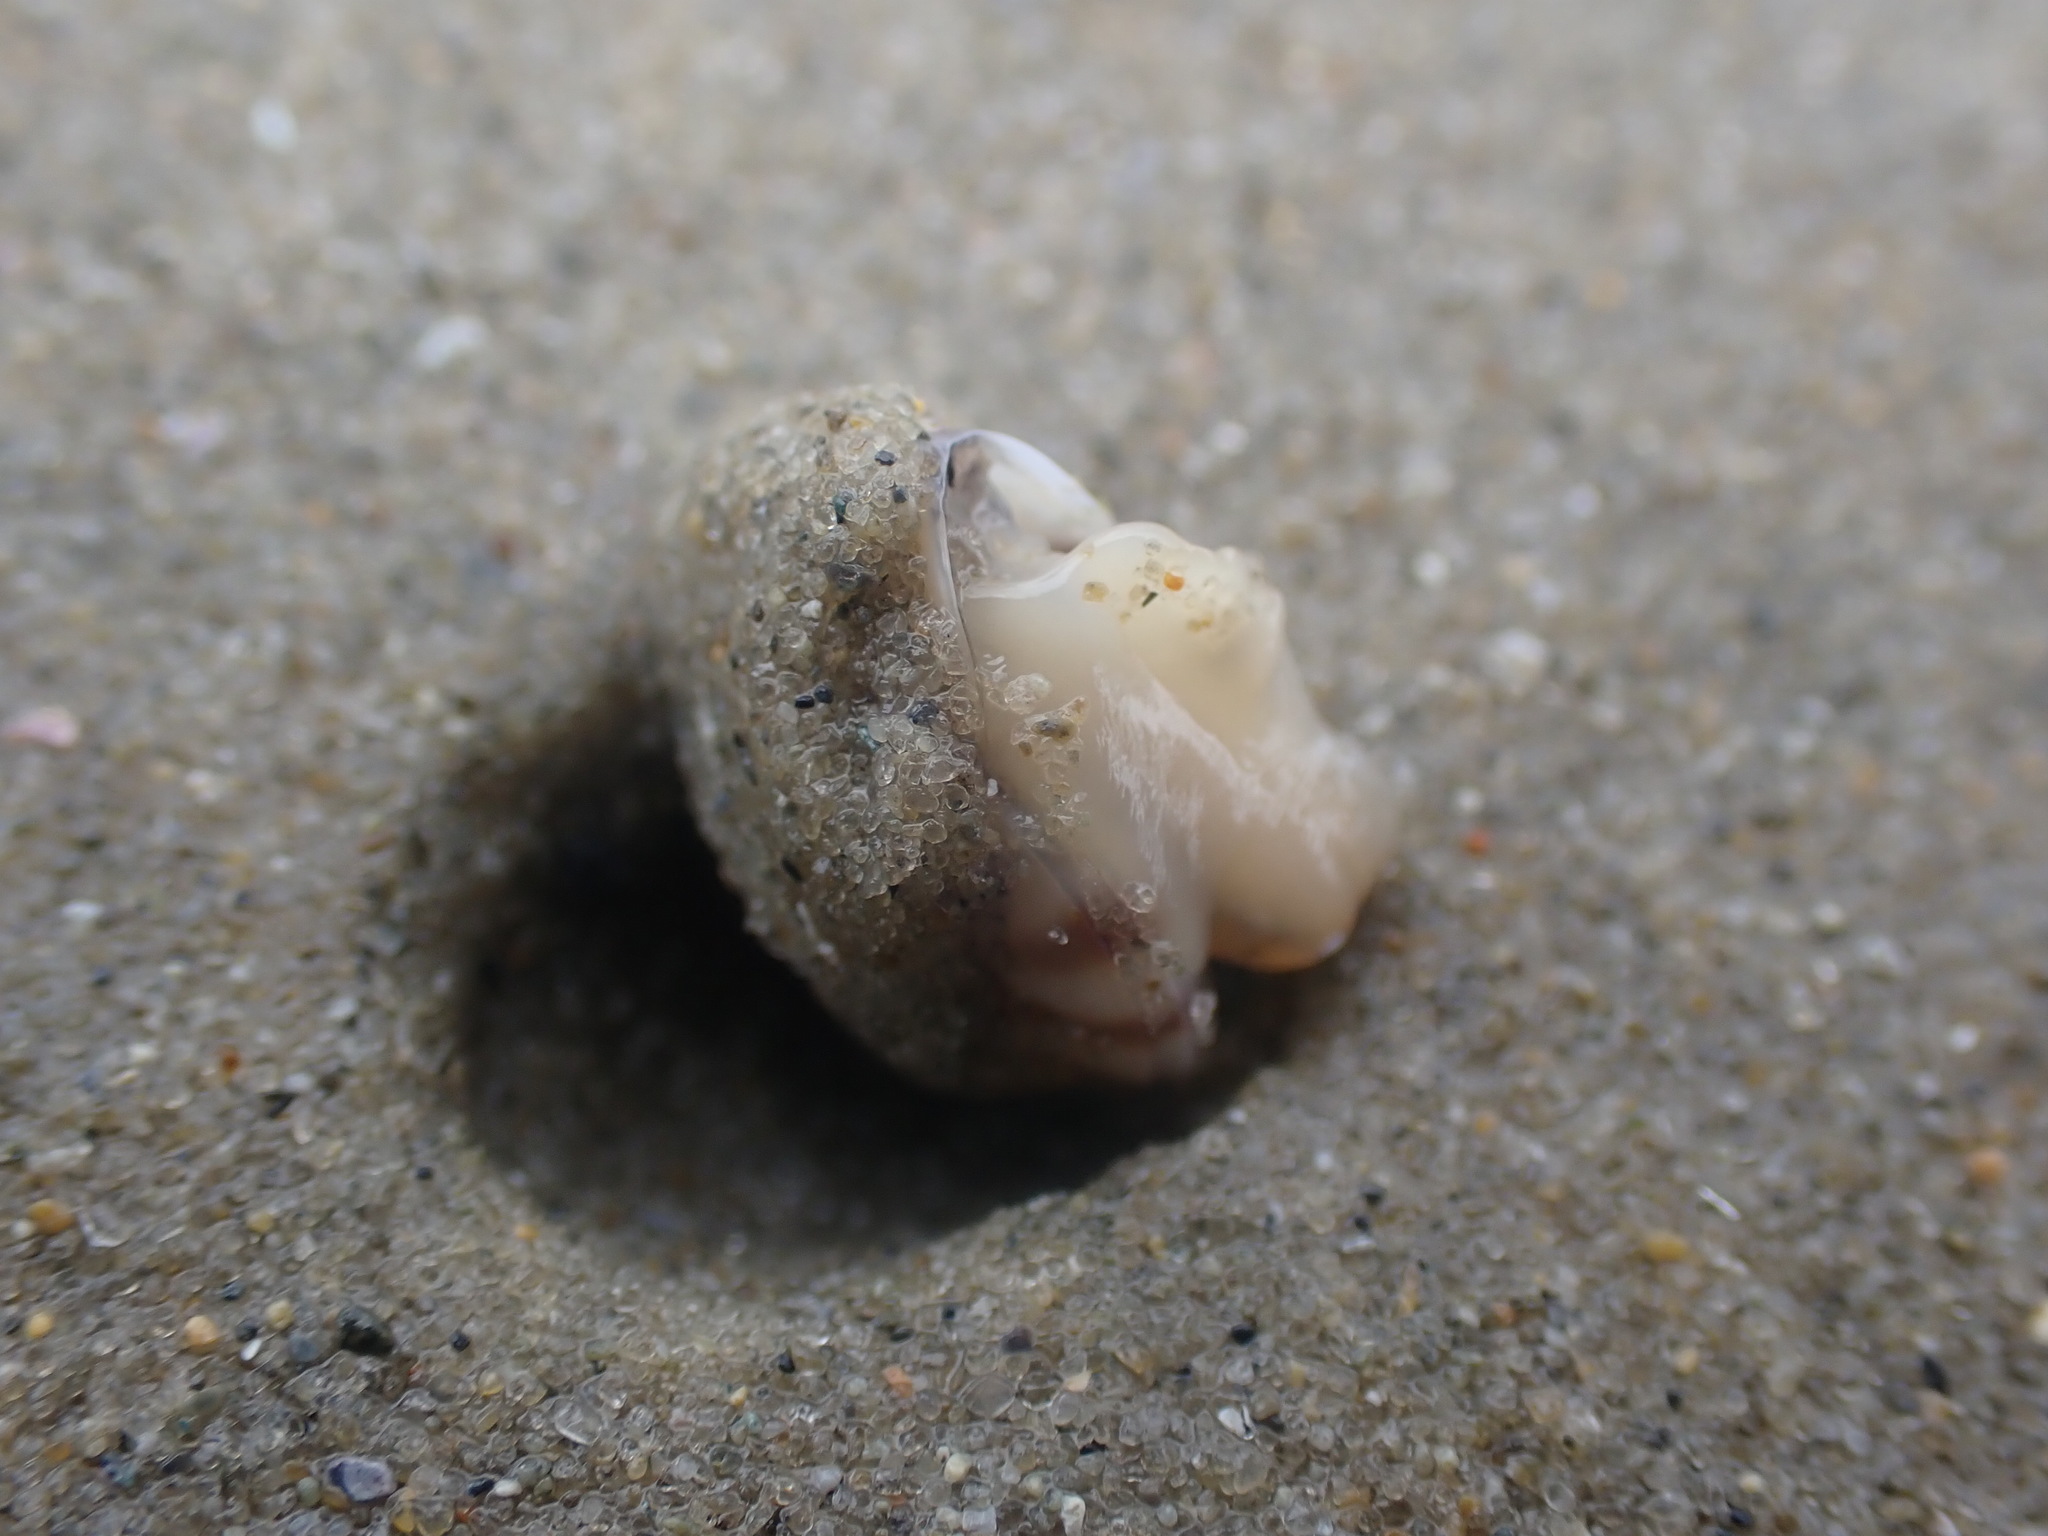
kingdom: Animalia
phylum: Mollusca
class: Gastropoda
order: Trochida
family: Trochidae
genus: Zethalia
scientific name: Zethalia zelandica
